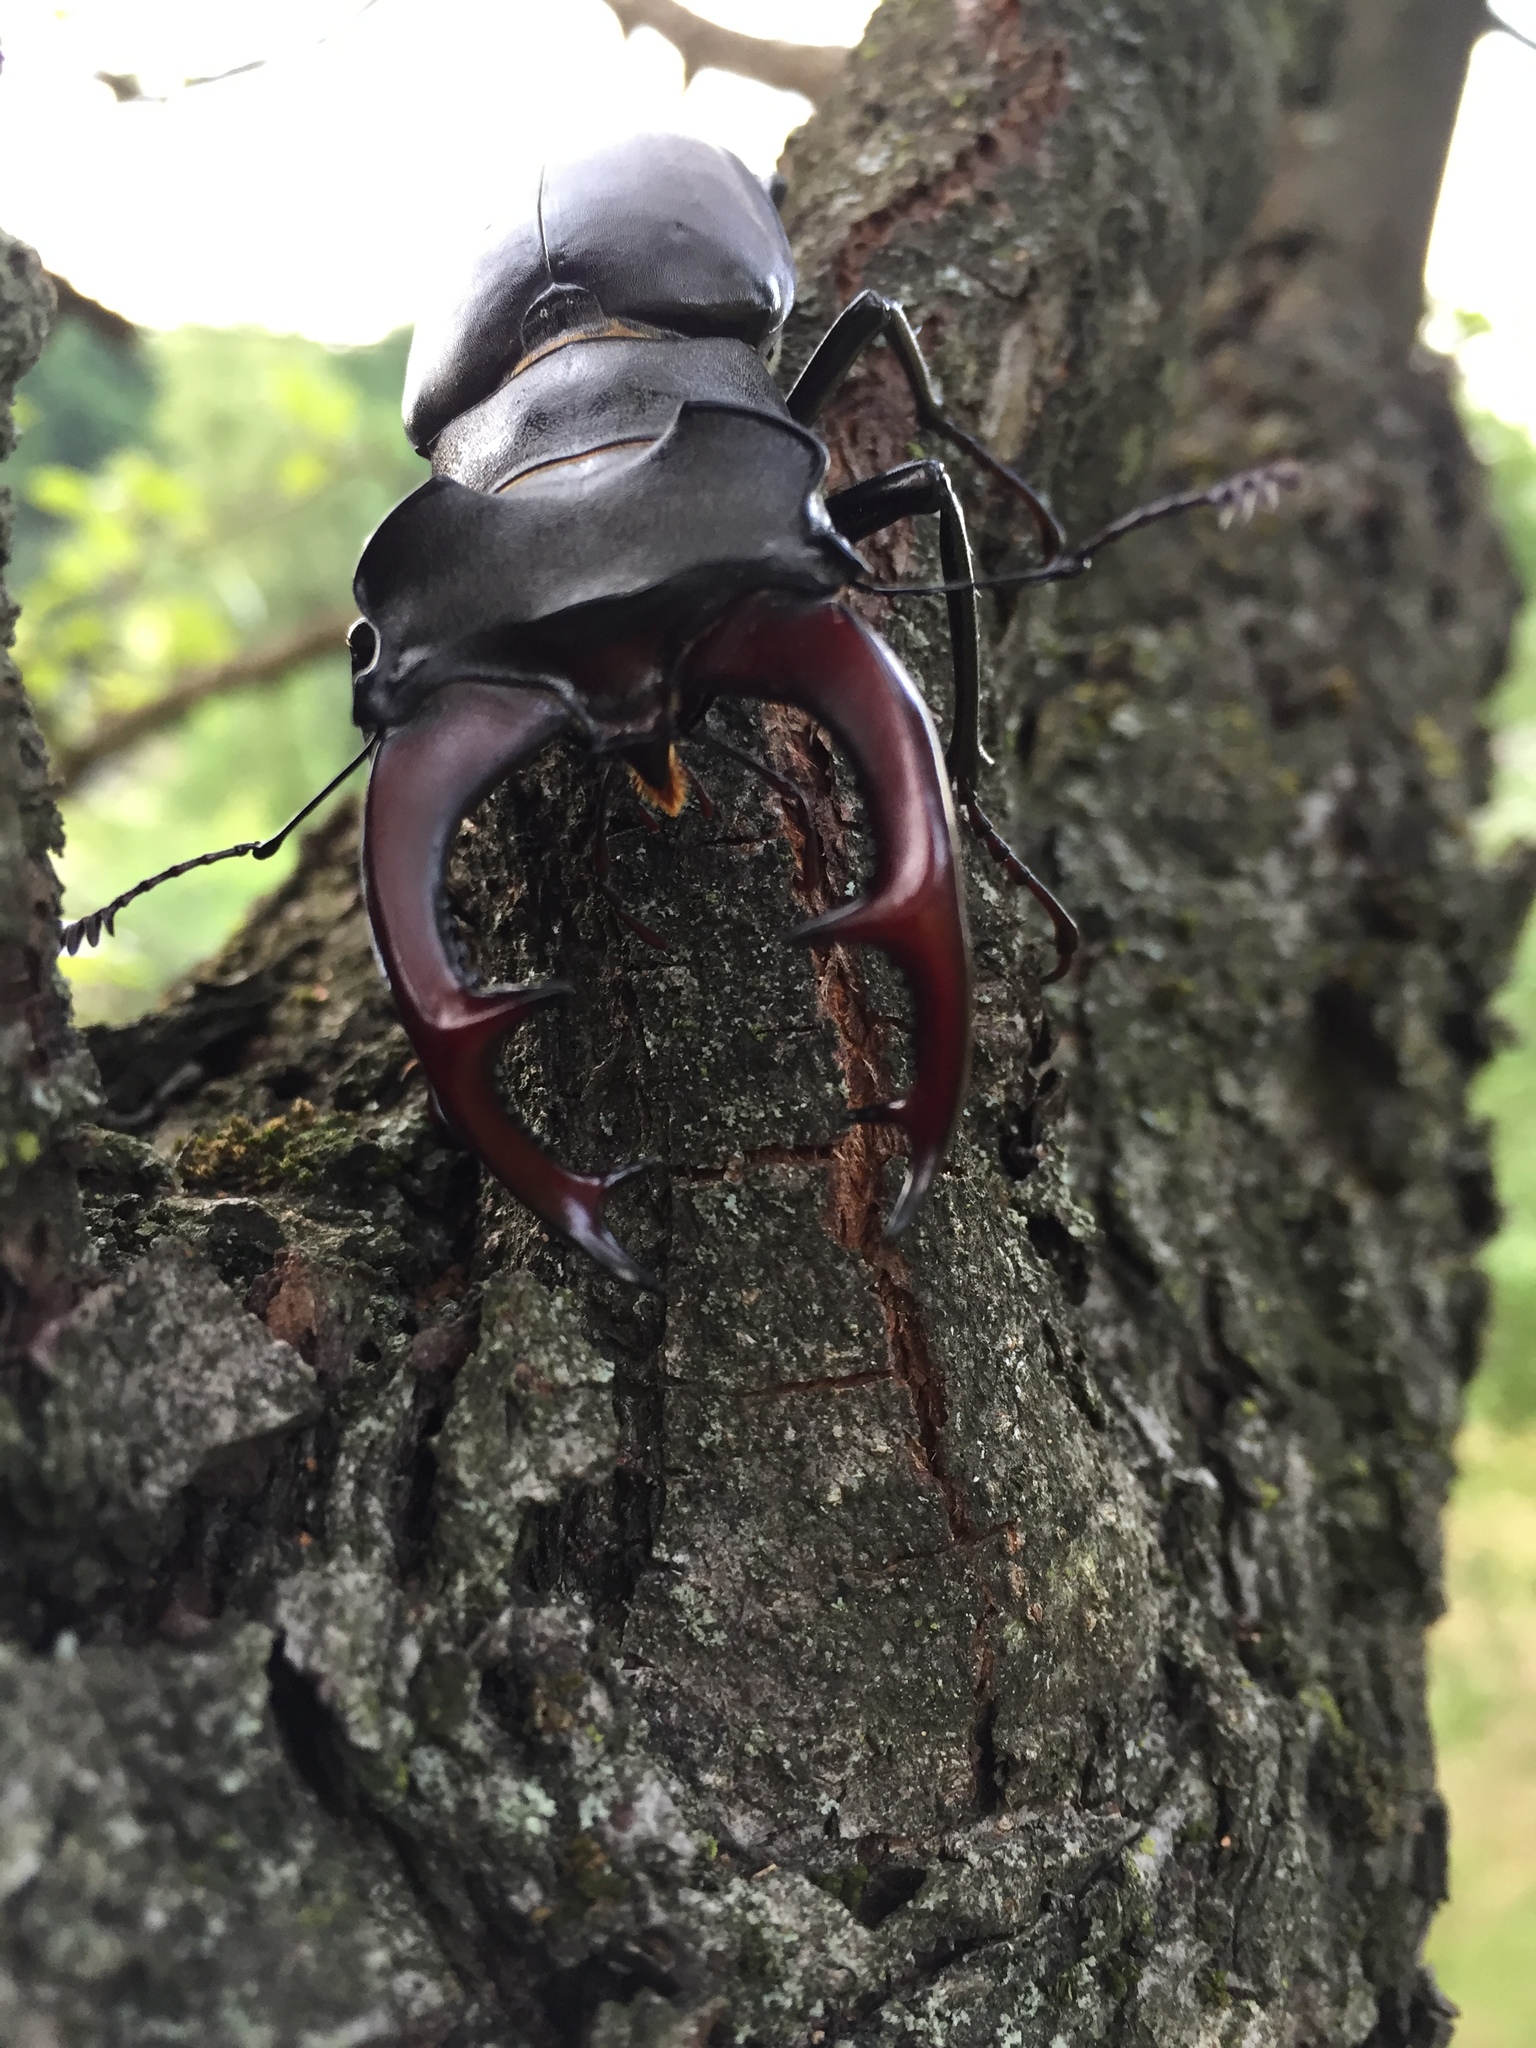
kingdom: Animalia
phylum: Arthropoda
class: Insecta
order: Coleoptera
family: Lucanidae
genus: Lucanus
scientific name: Lucanus cervus
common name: Stag beetle
